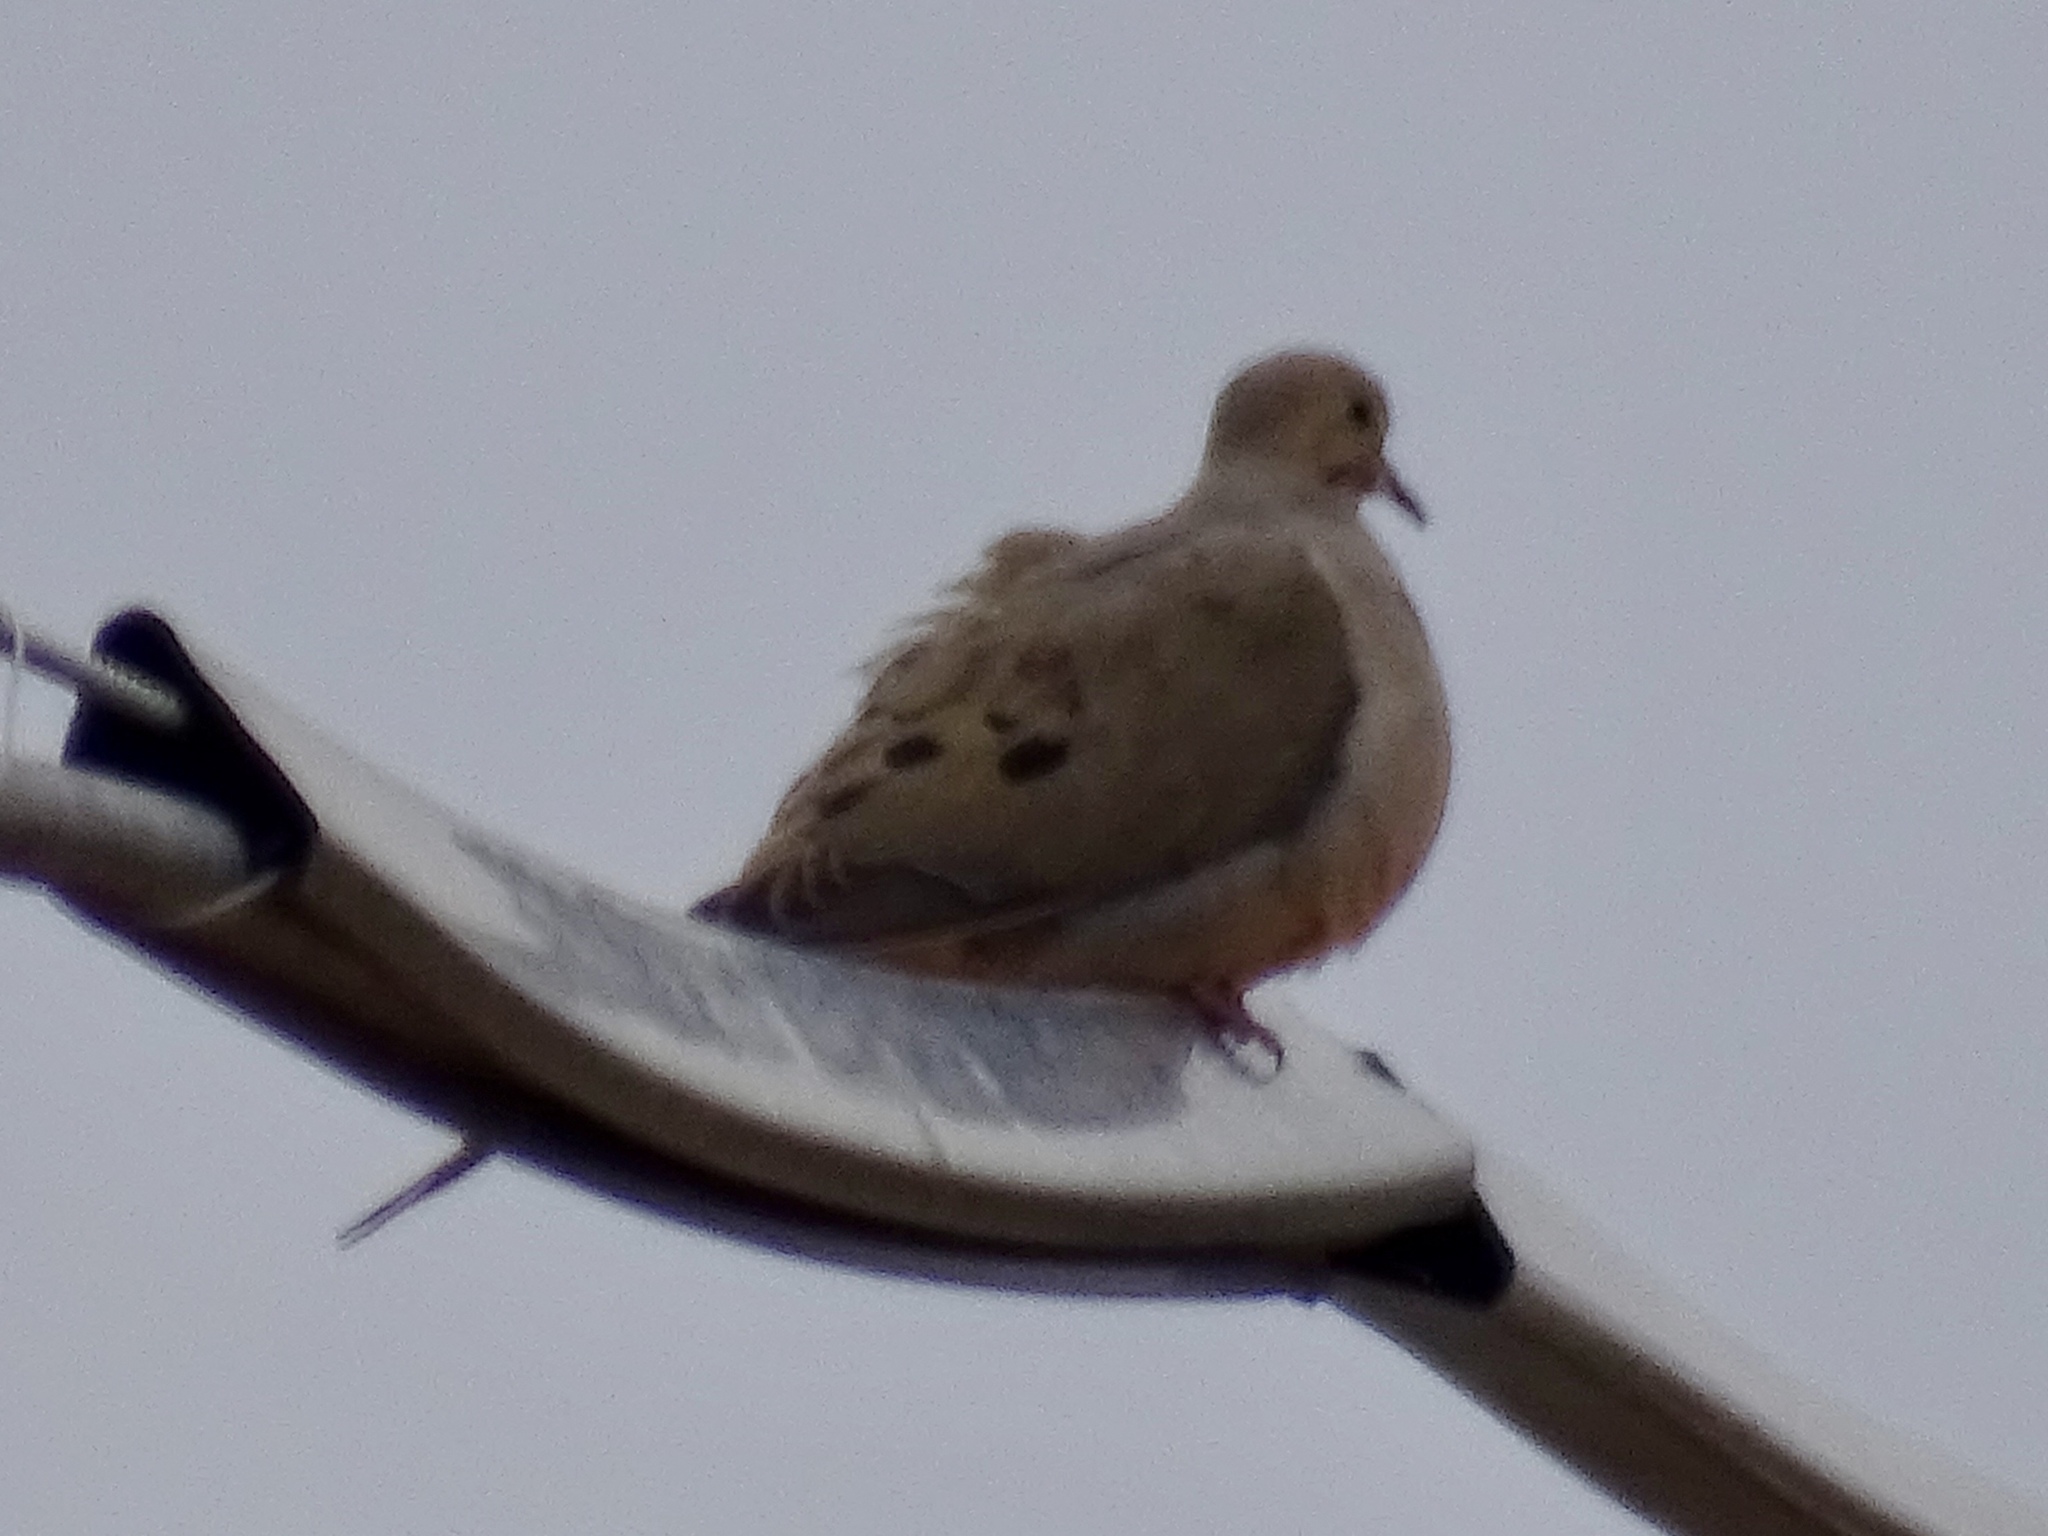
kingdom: Animalia
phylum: Chordata
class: Aves
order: Columbiformes
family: Columbidae
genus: Zenaida
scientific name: Zenaida macroura
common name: Mourning dove
